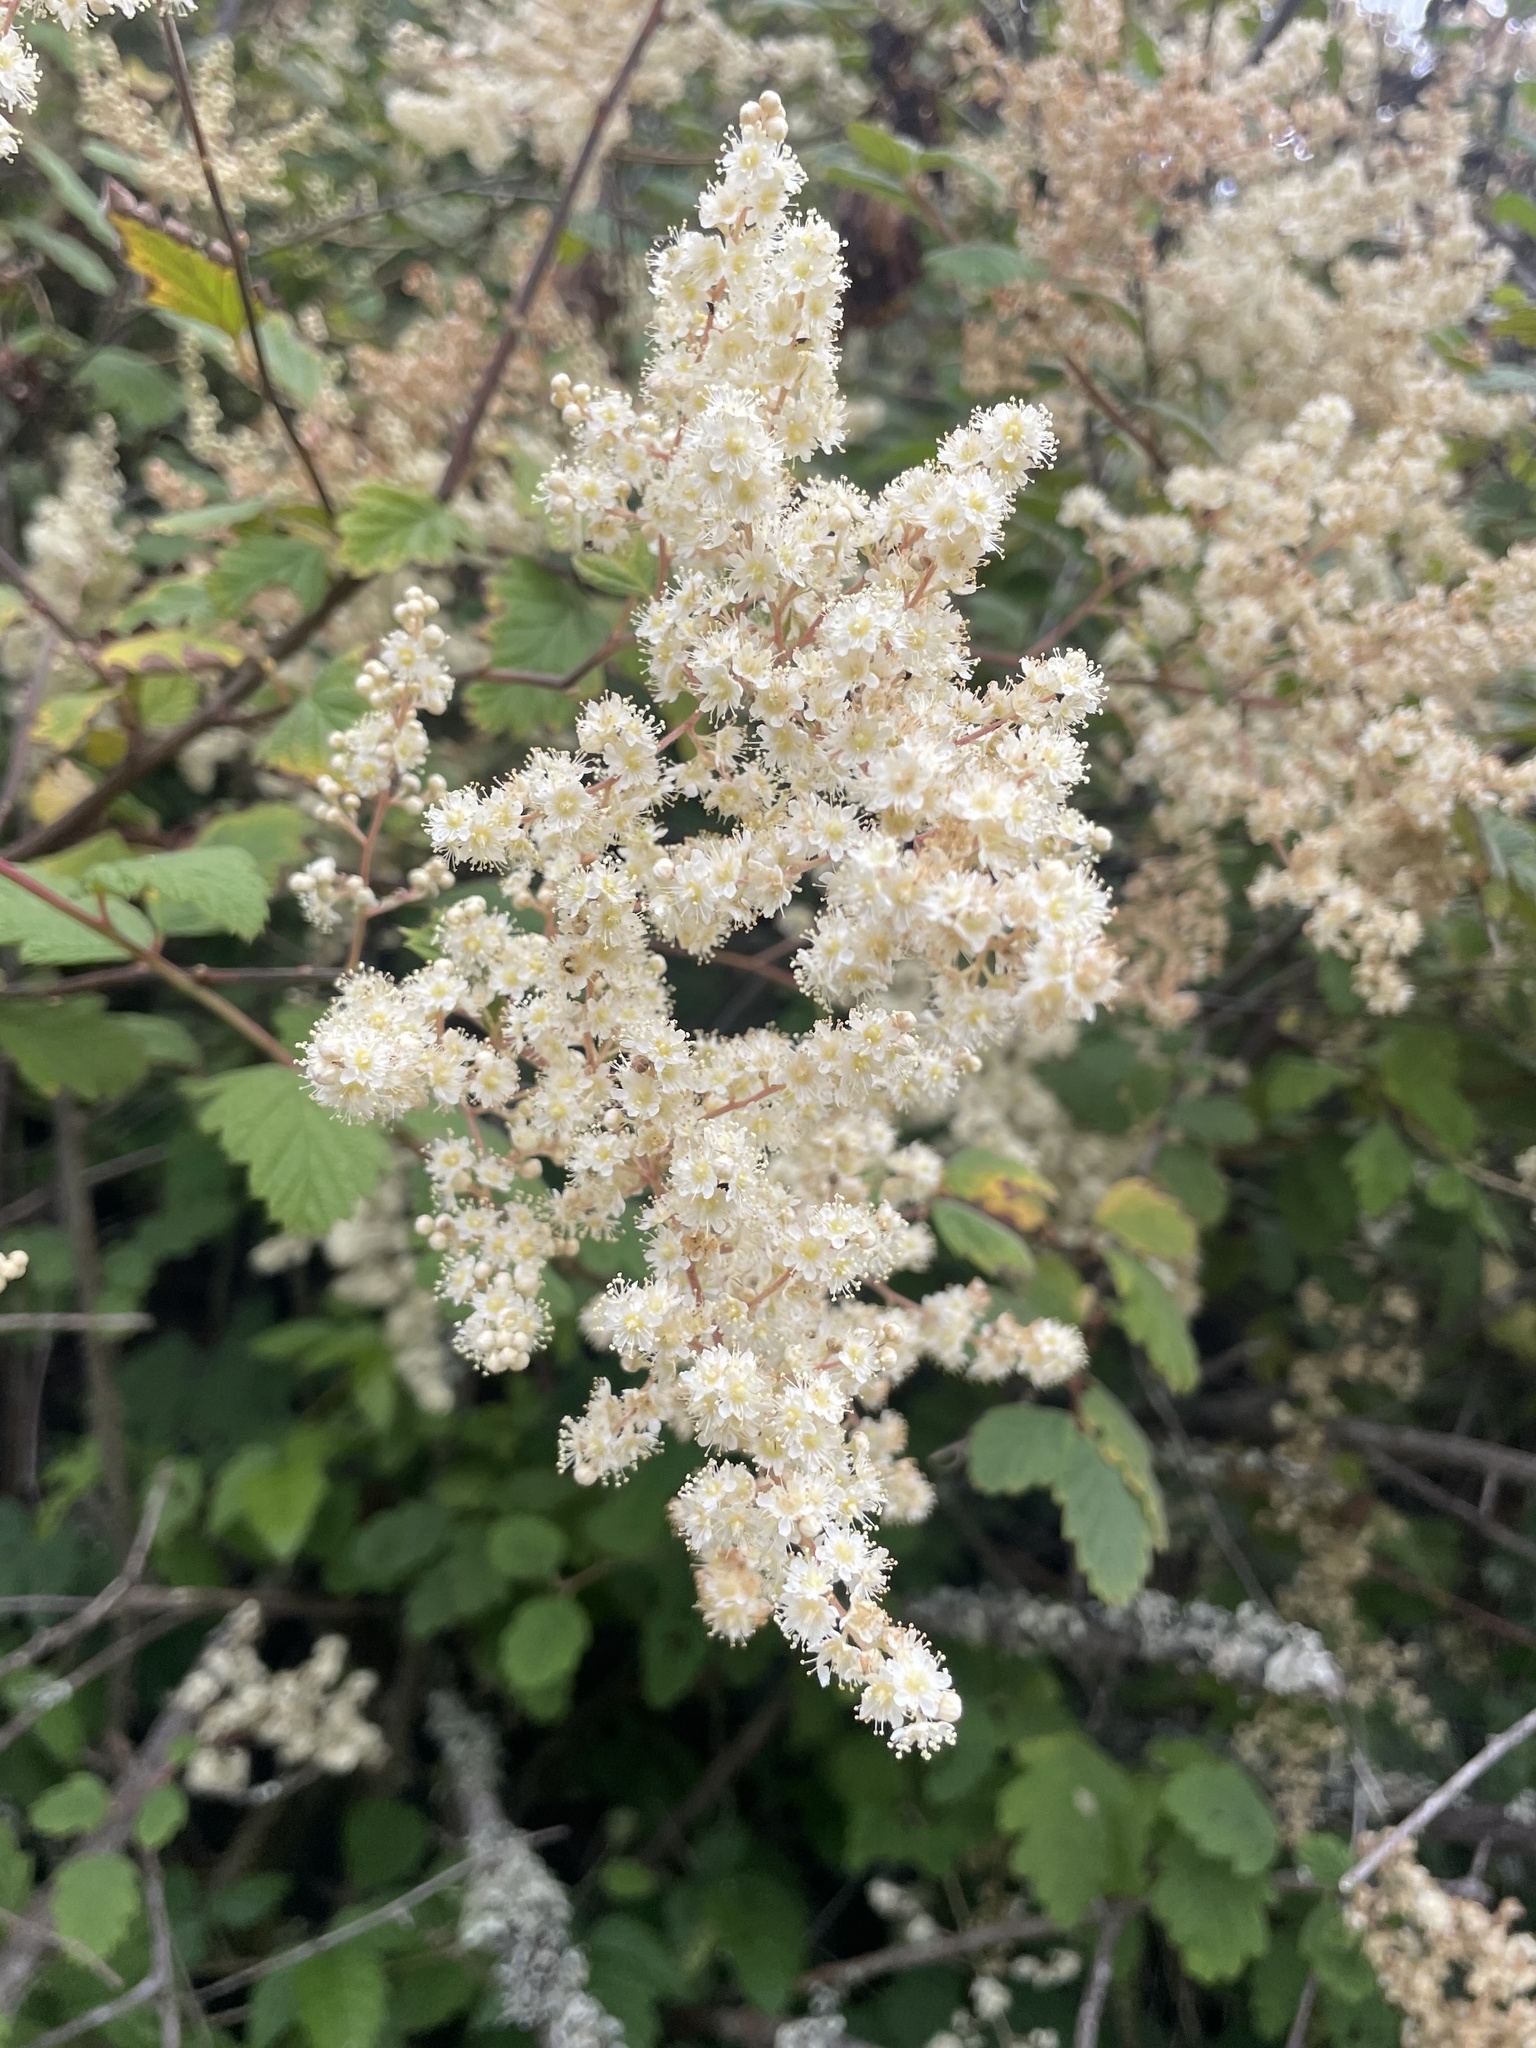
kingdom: Plantae
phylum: Tracheophyta
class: Magnoliopsida
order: Rosales
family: Rosaceae
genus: Holodiscus
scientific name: Holodiscus discolor
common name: Oceanspray
